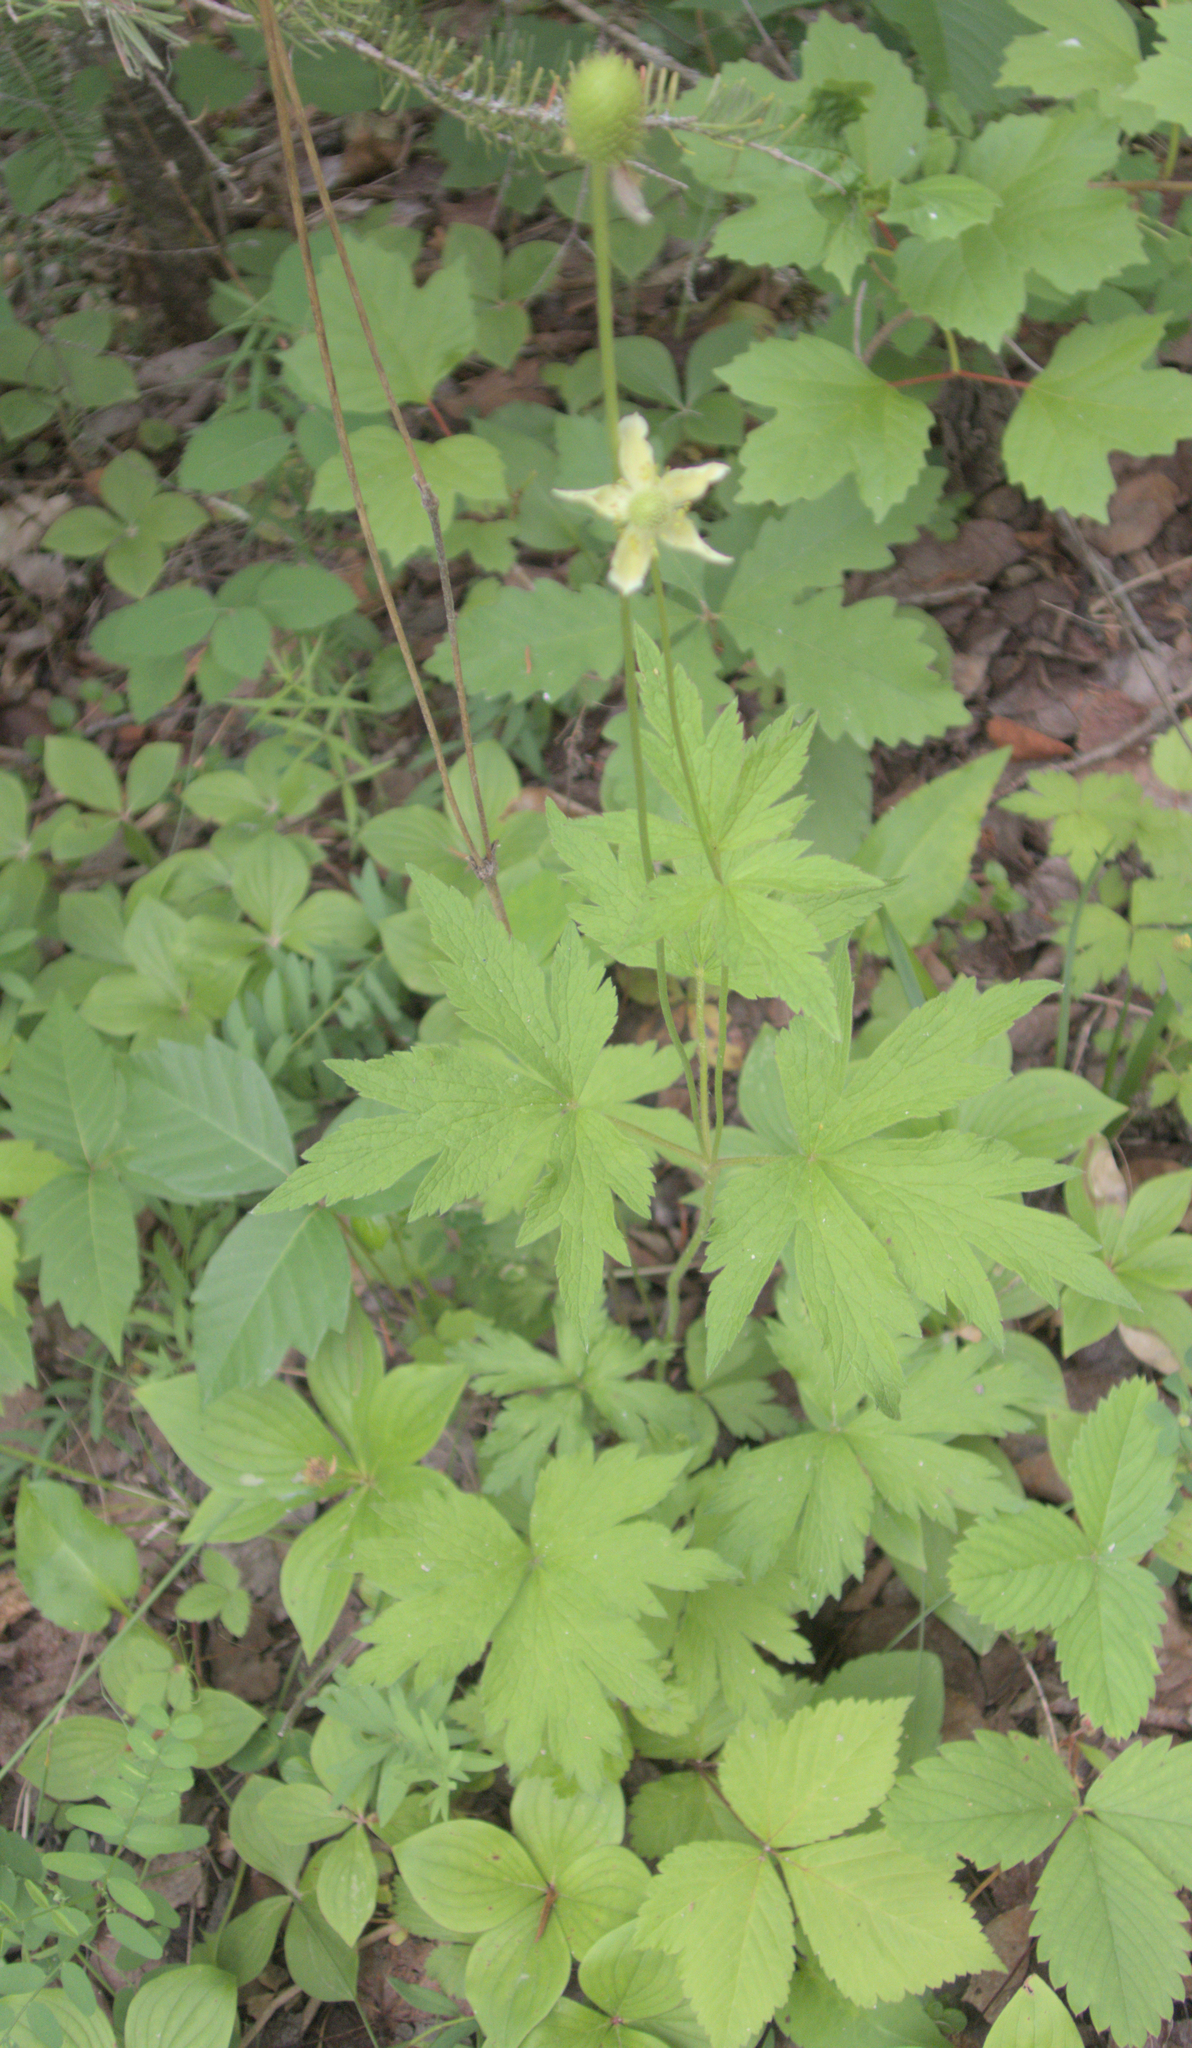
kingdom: Plantae
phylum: Tracheophyta
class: Magnoliopsida
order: Ranunculales
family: Ranunculaceae
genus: Anemone
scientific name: Anemone virginiana
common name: Tall anemone
